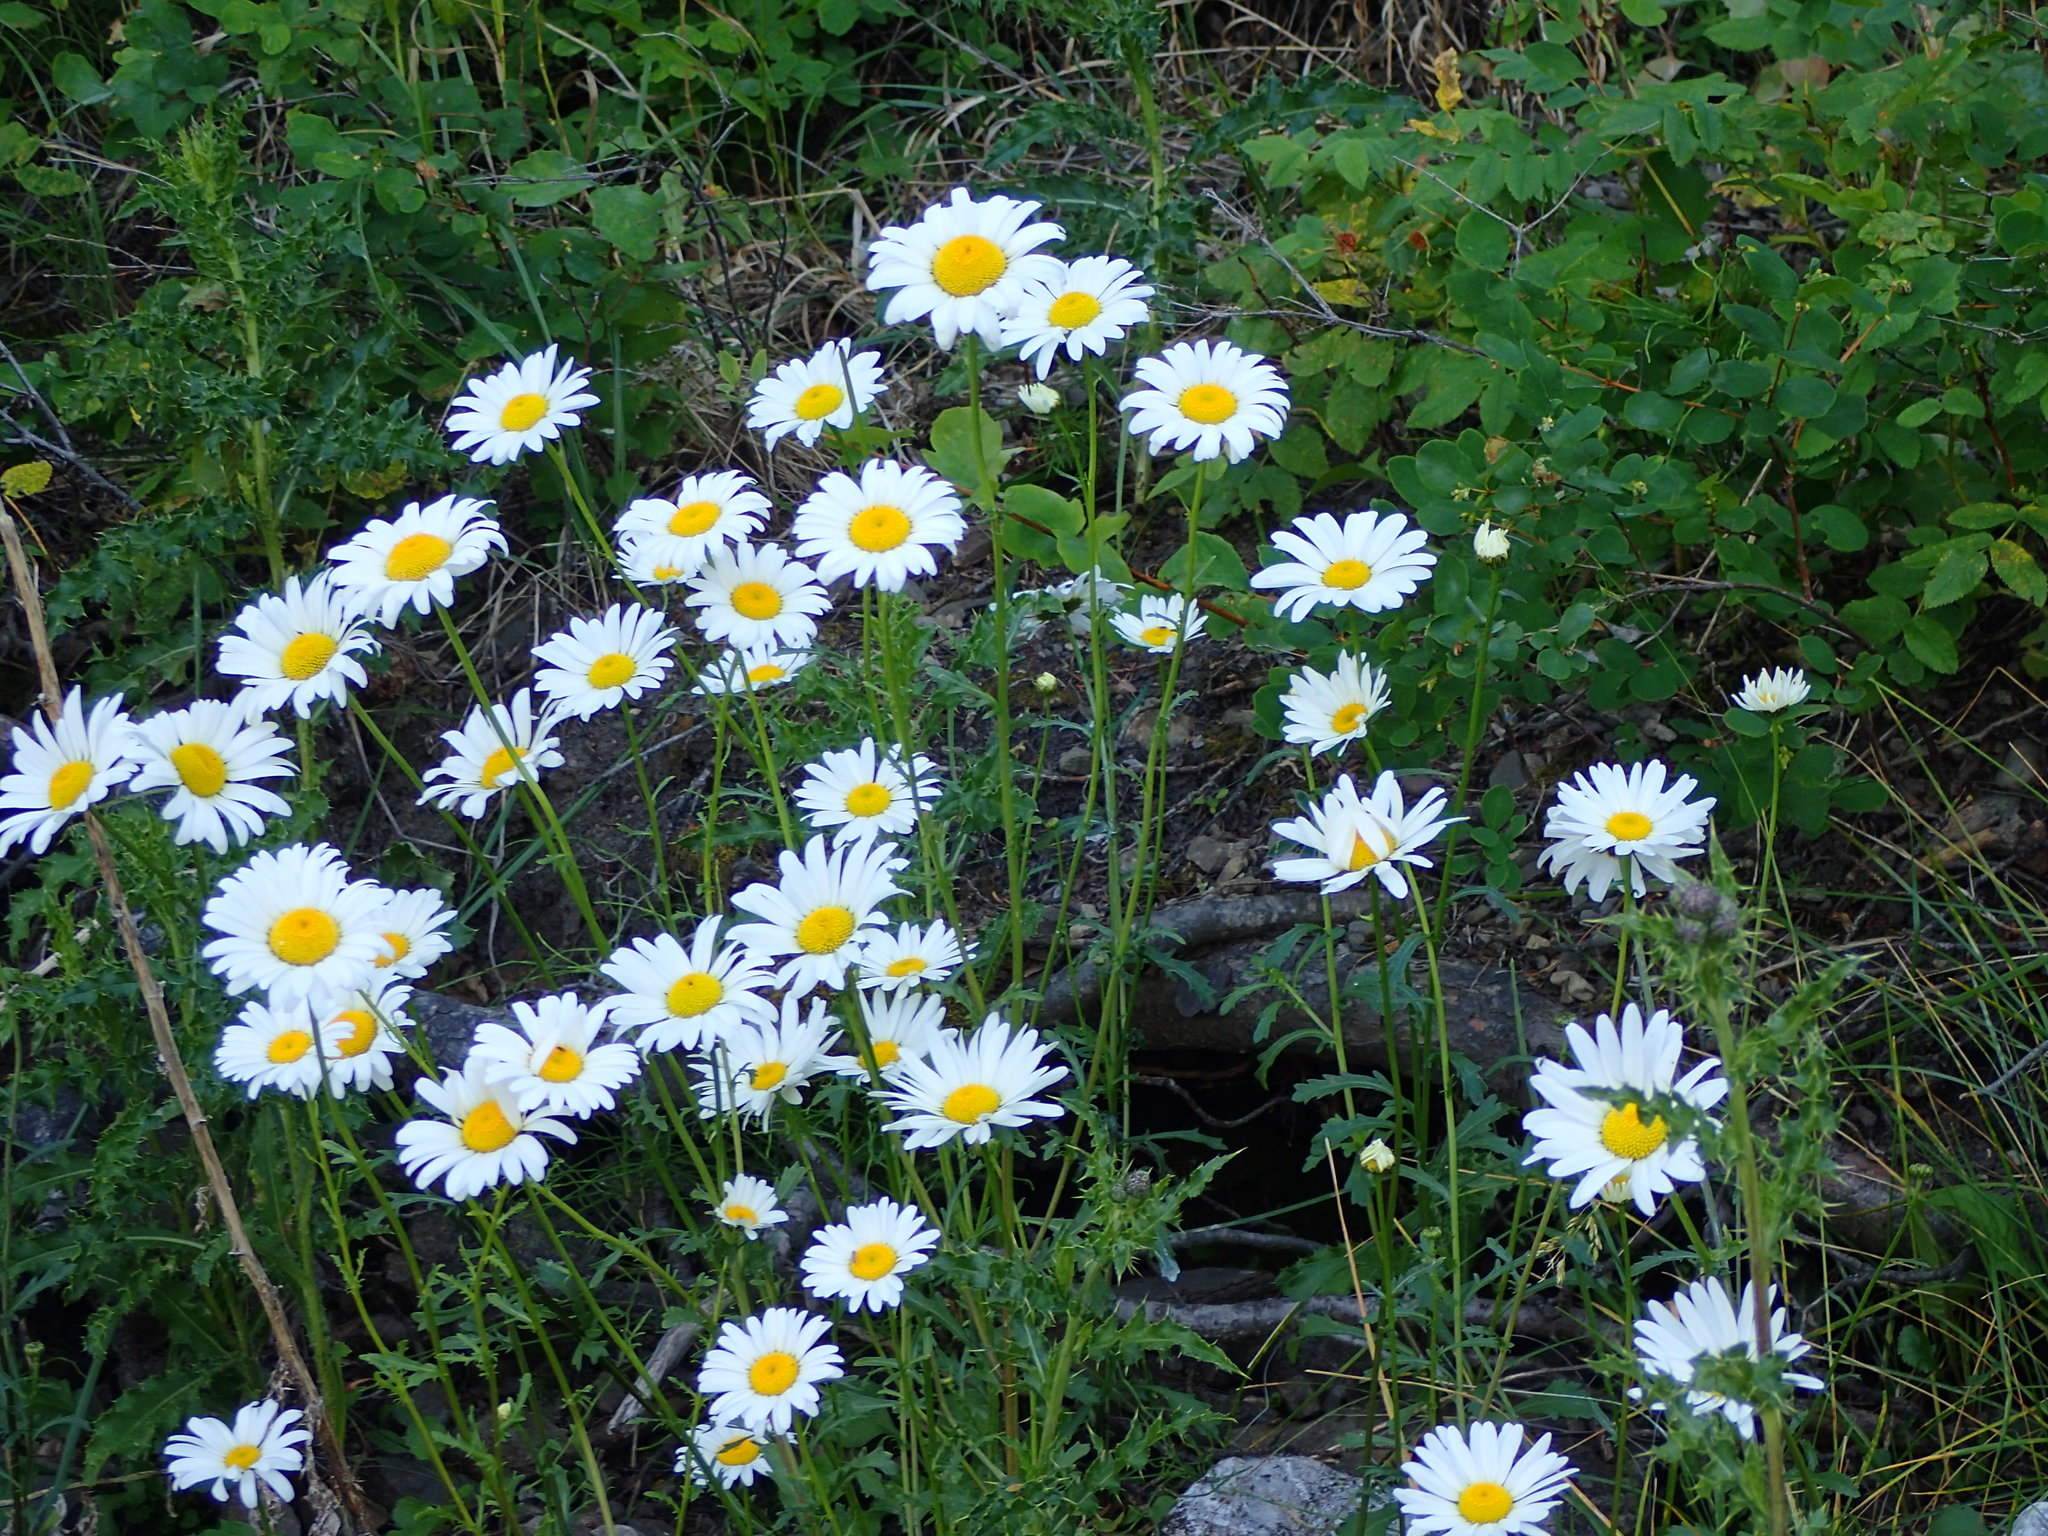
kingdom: Plantae
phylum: Tracheophyta
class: Magnoliopsida
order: Asterales
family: Asteraceae
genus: Leucanthemum
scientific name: Leucanthemum vulgare
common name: Oxeye daisy
